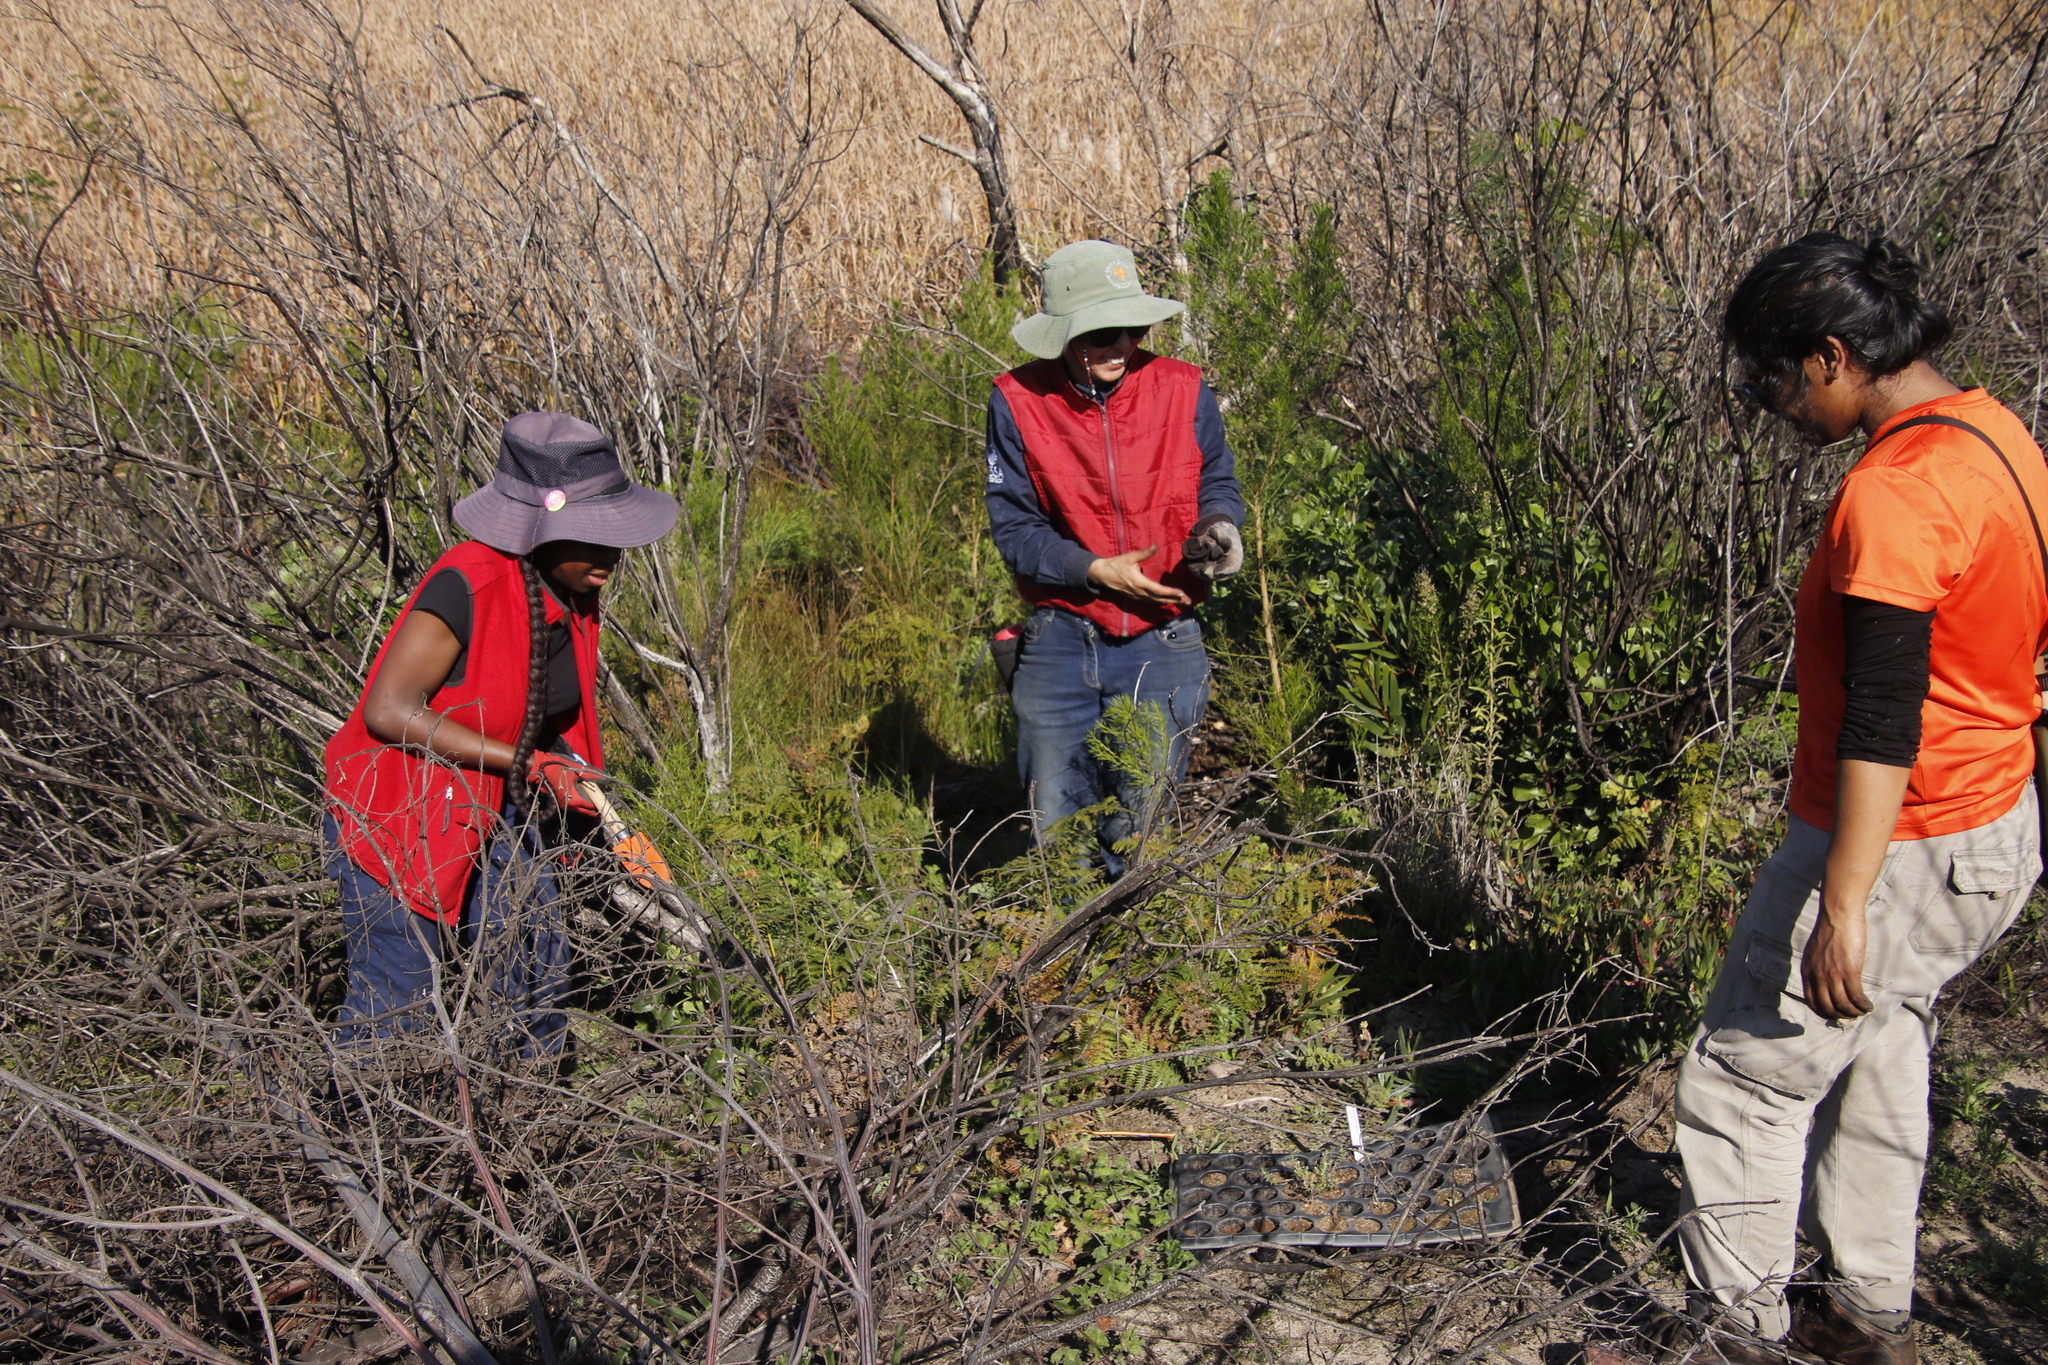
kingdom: Plantae
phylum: Tracheophyta
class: Magnoliopsida
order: Fabales
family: Fabaceae
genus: Psoralea
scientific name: Psoralea pinnata
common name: African scurfpea
